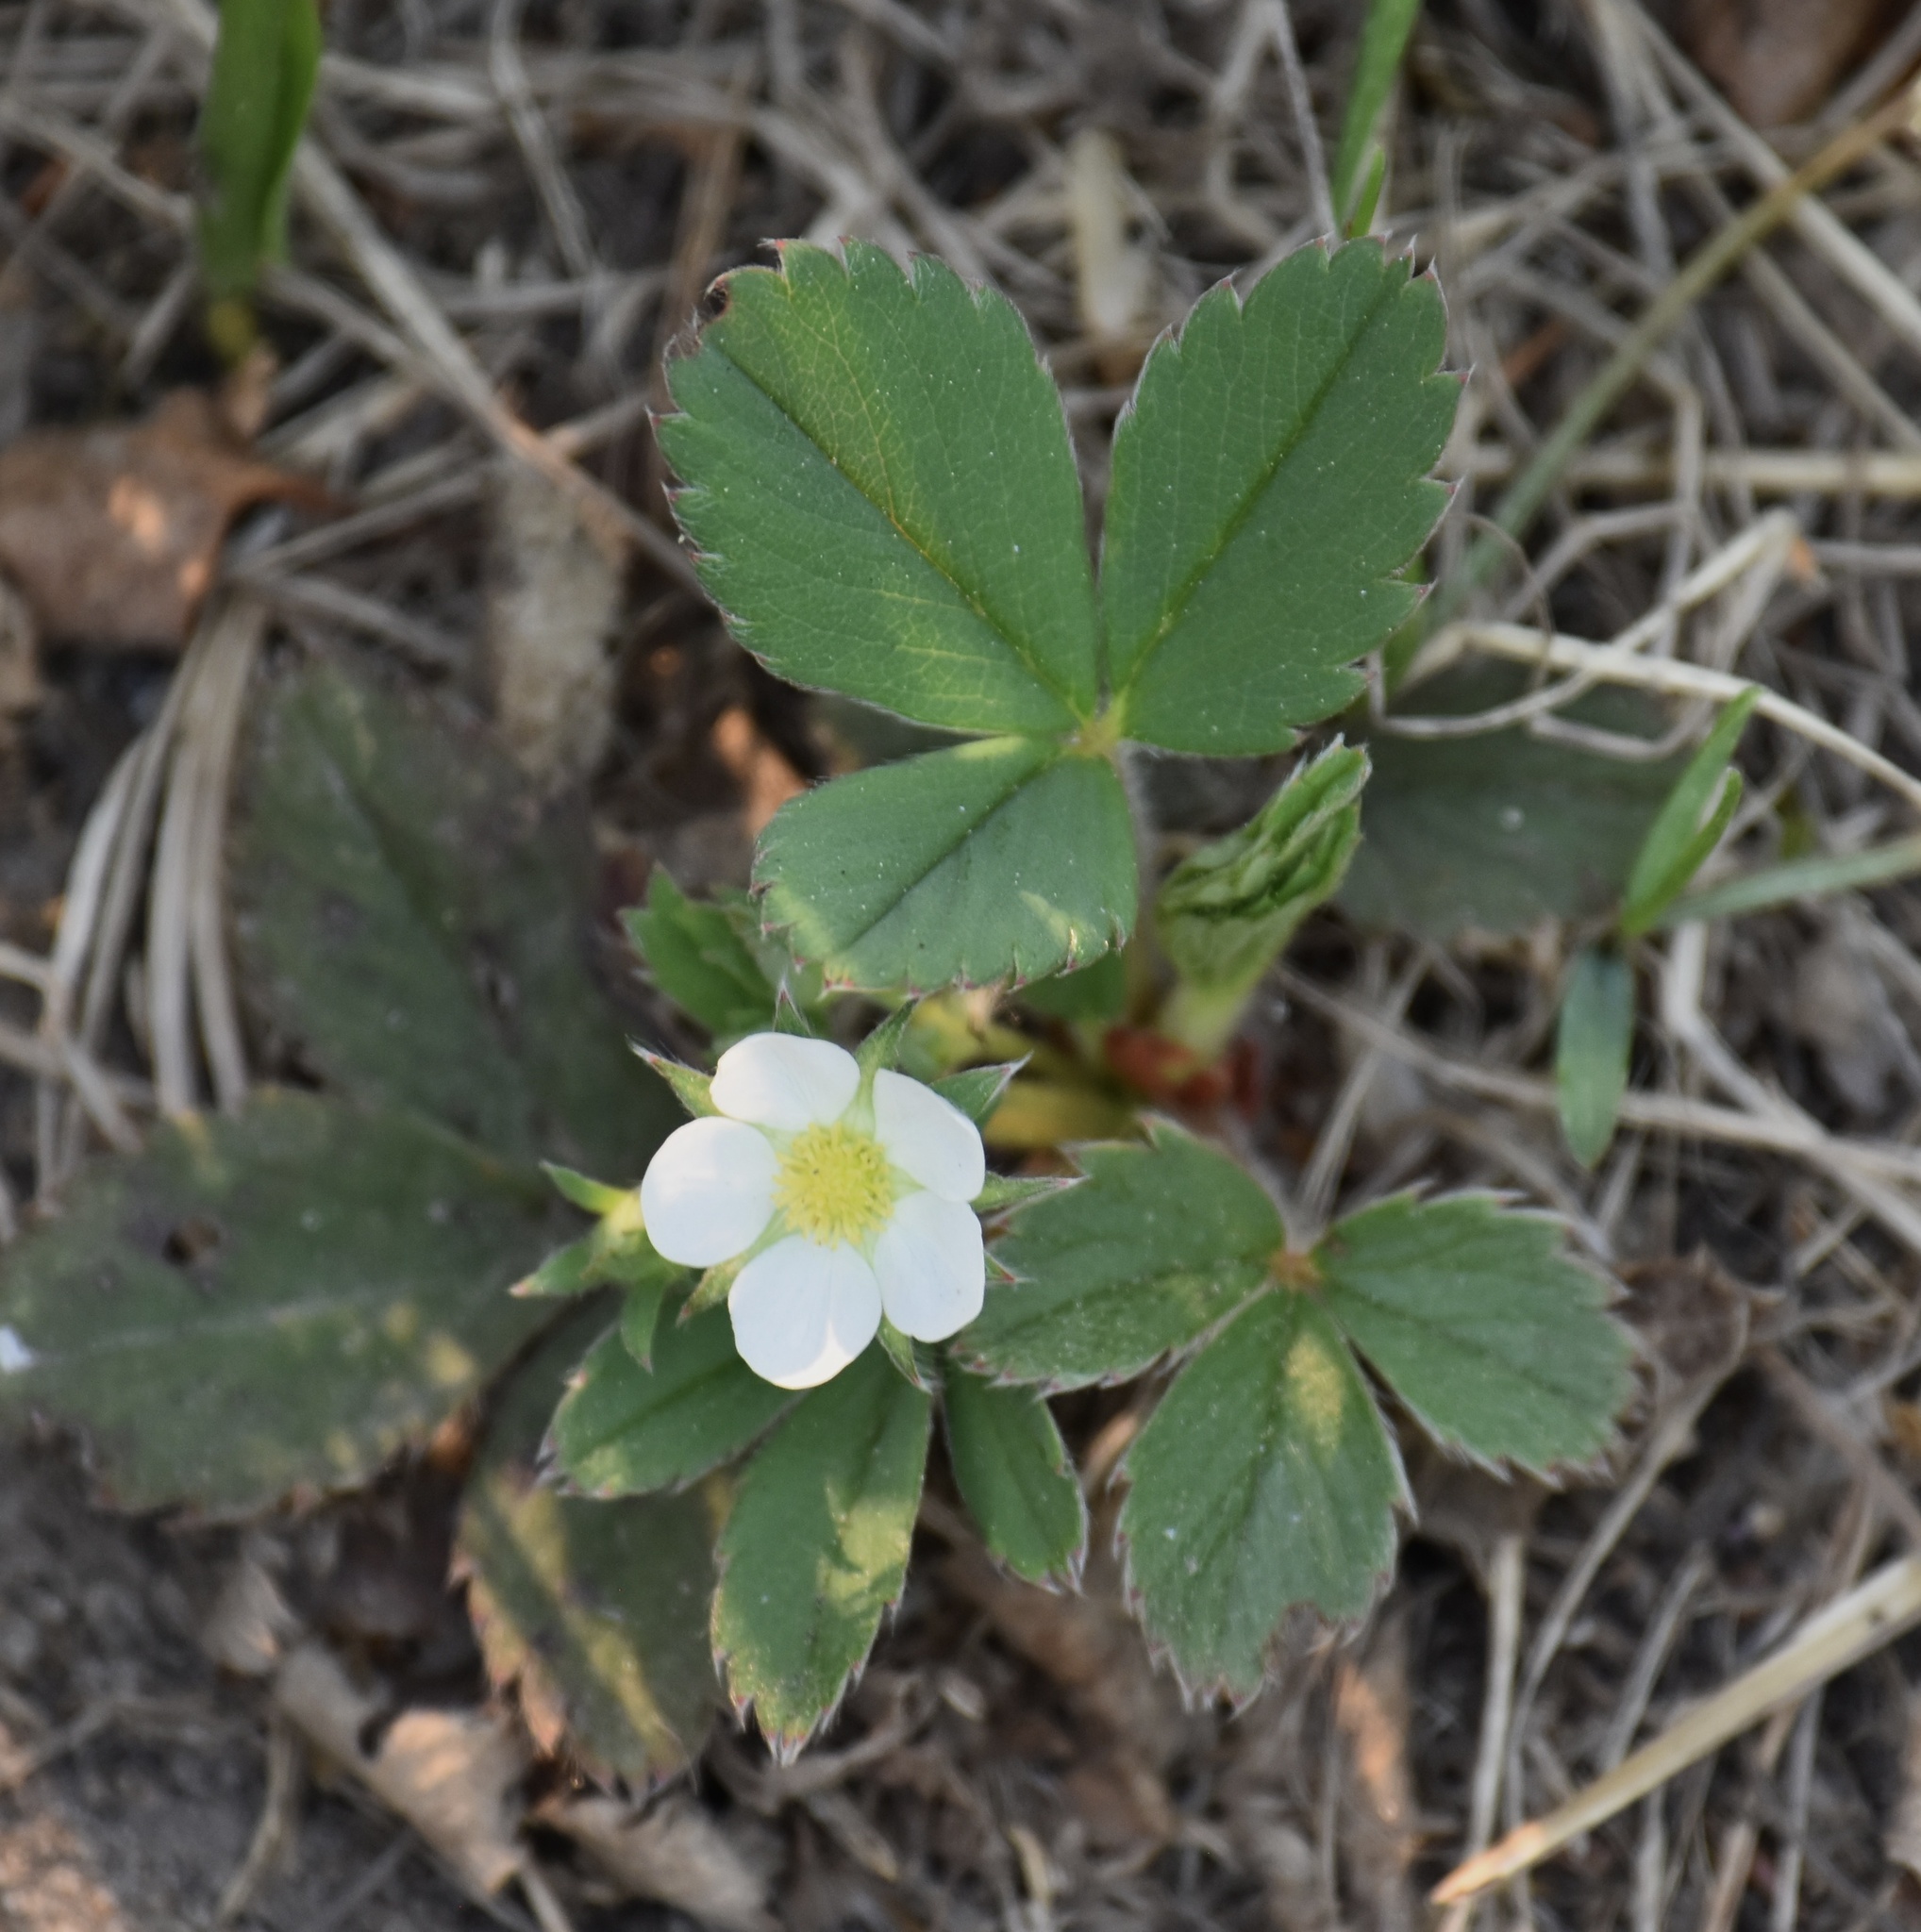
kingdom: Plantae
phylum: Tracheophyta
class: Magnoliopsida
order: Rosales
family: Rosaceae
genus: Fragaria
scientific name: Fragaria virginiana
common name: Thickleaved wild strawberry
